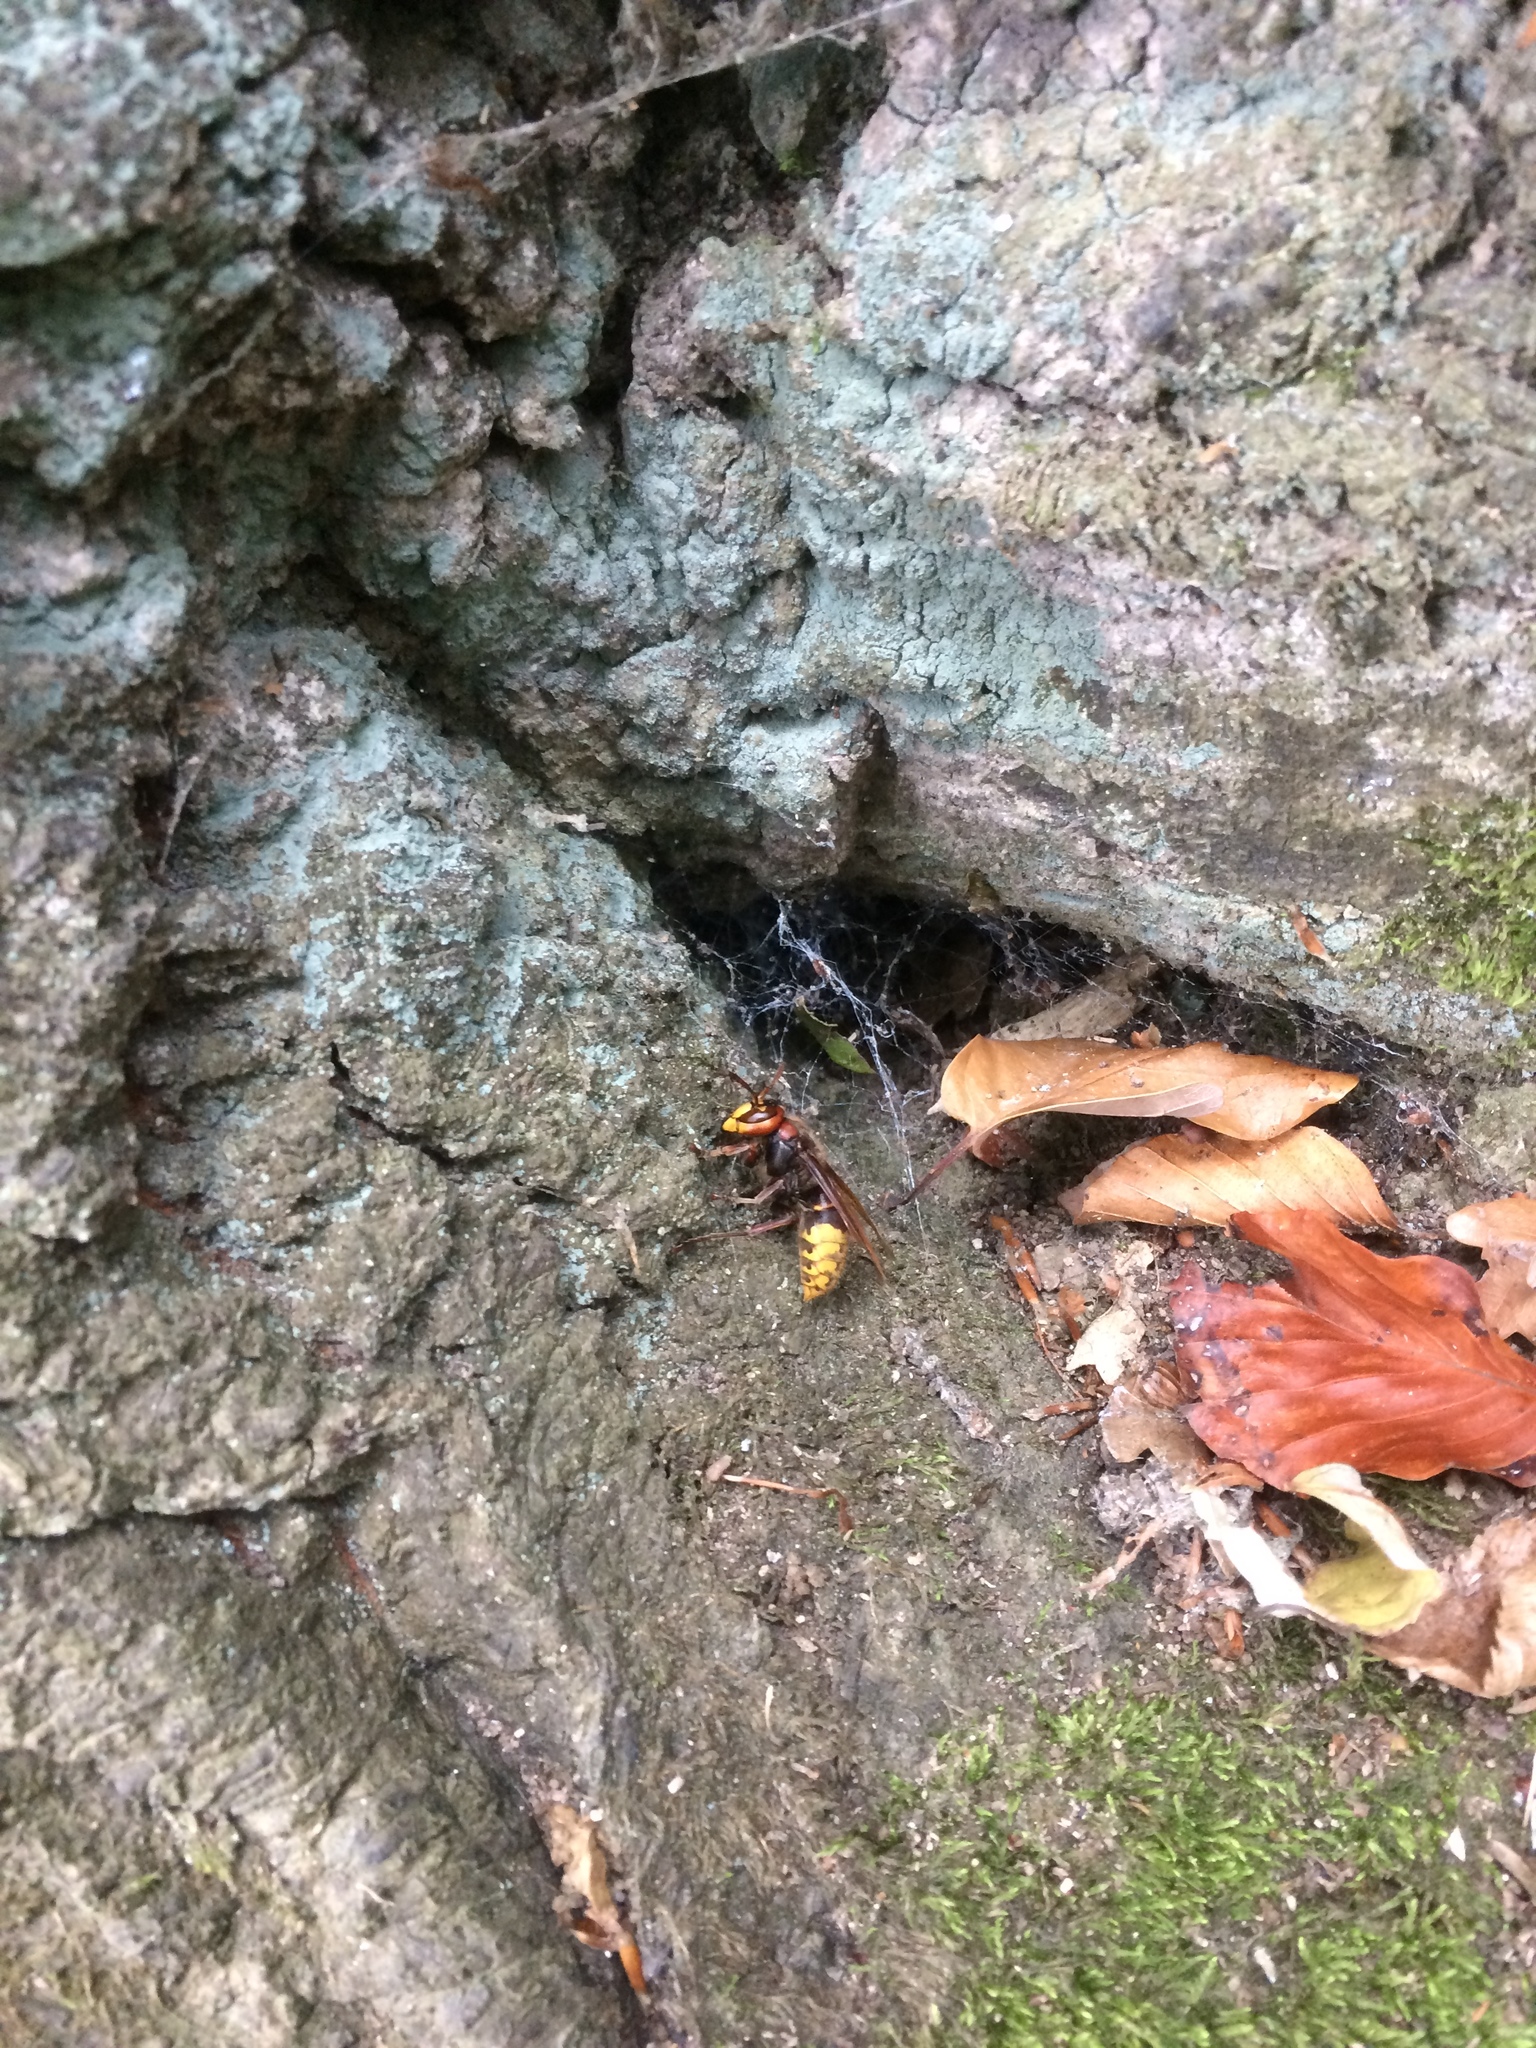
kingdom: Animalia
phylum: Arthropoda
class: Insecta
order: Hymenoptera
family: Vespidae
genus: Vespa
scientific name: Vespa crabro
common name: Hornet
